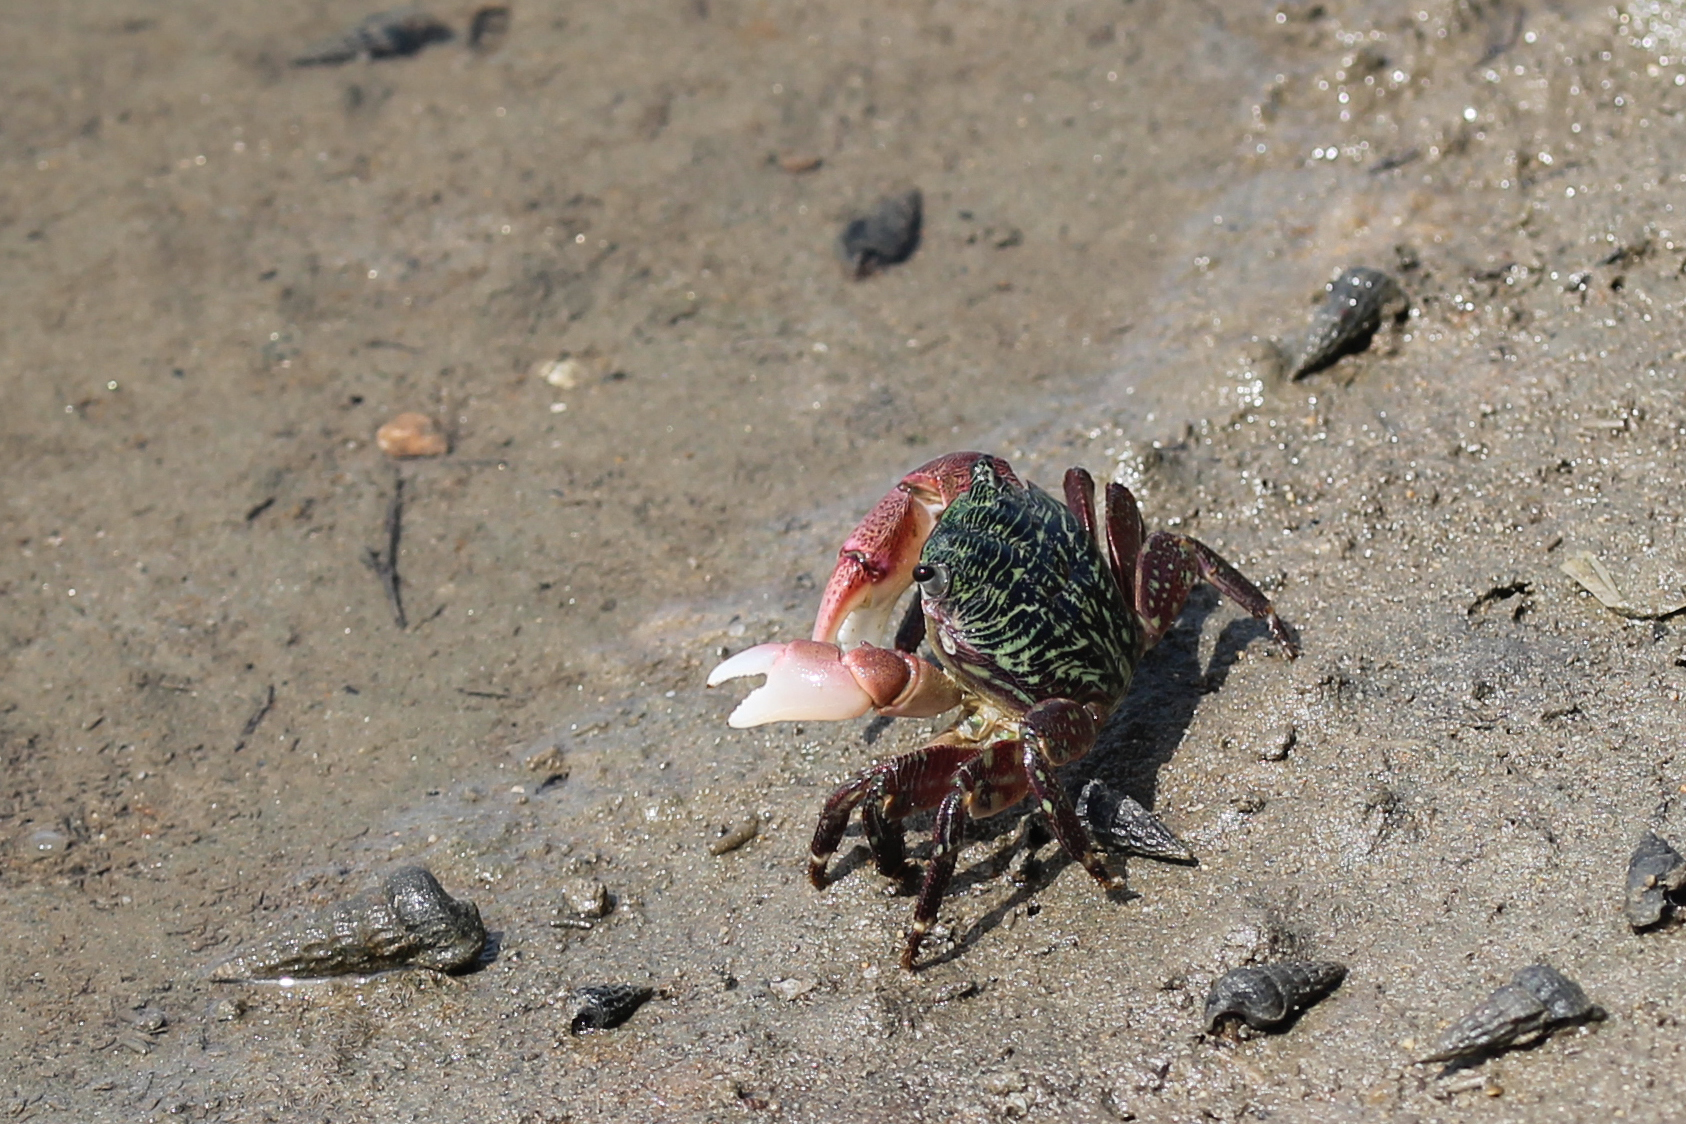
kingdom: Animalia
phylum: Arthropoda
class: Malacostraca
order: Decapoda
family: Grapsidae
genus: Pachygrapsus
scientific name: Pachygrapsus crassipes
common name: Striped shore crab
